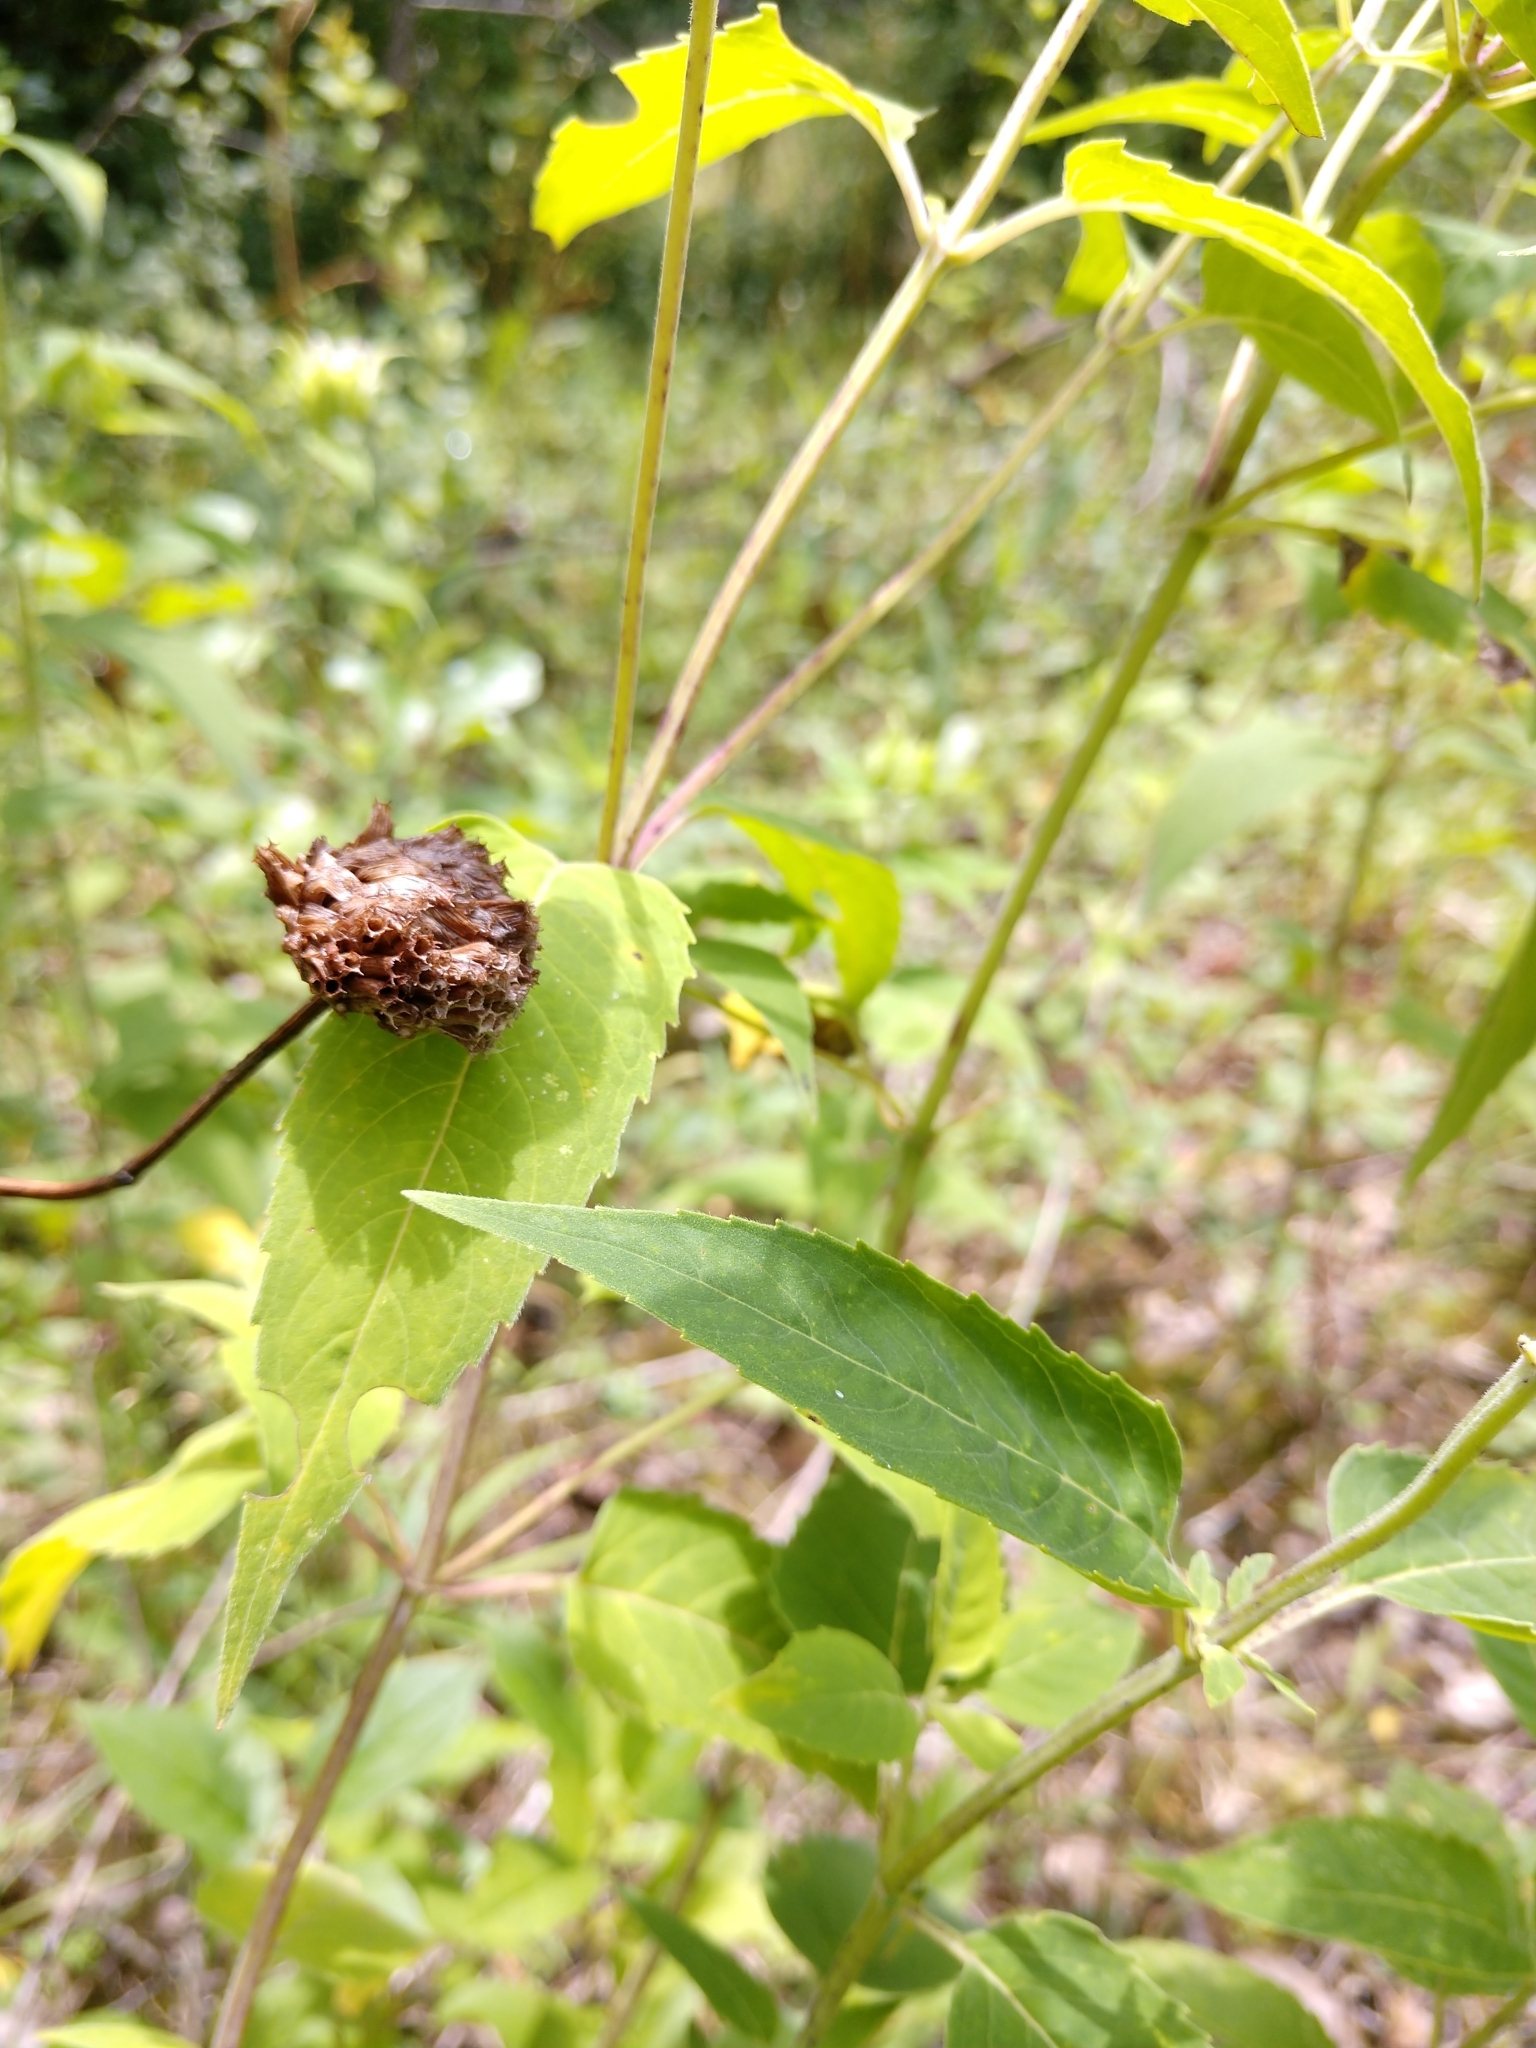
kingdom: Plantae
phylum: Tracheophyta
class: Magnoliopsida
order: Lamiales
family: Lamiaceae
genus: Monarda
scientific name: Monarda fistulosa
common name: Purple beebalm
